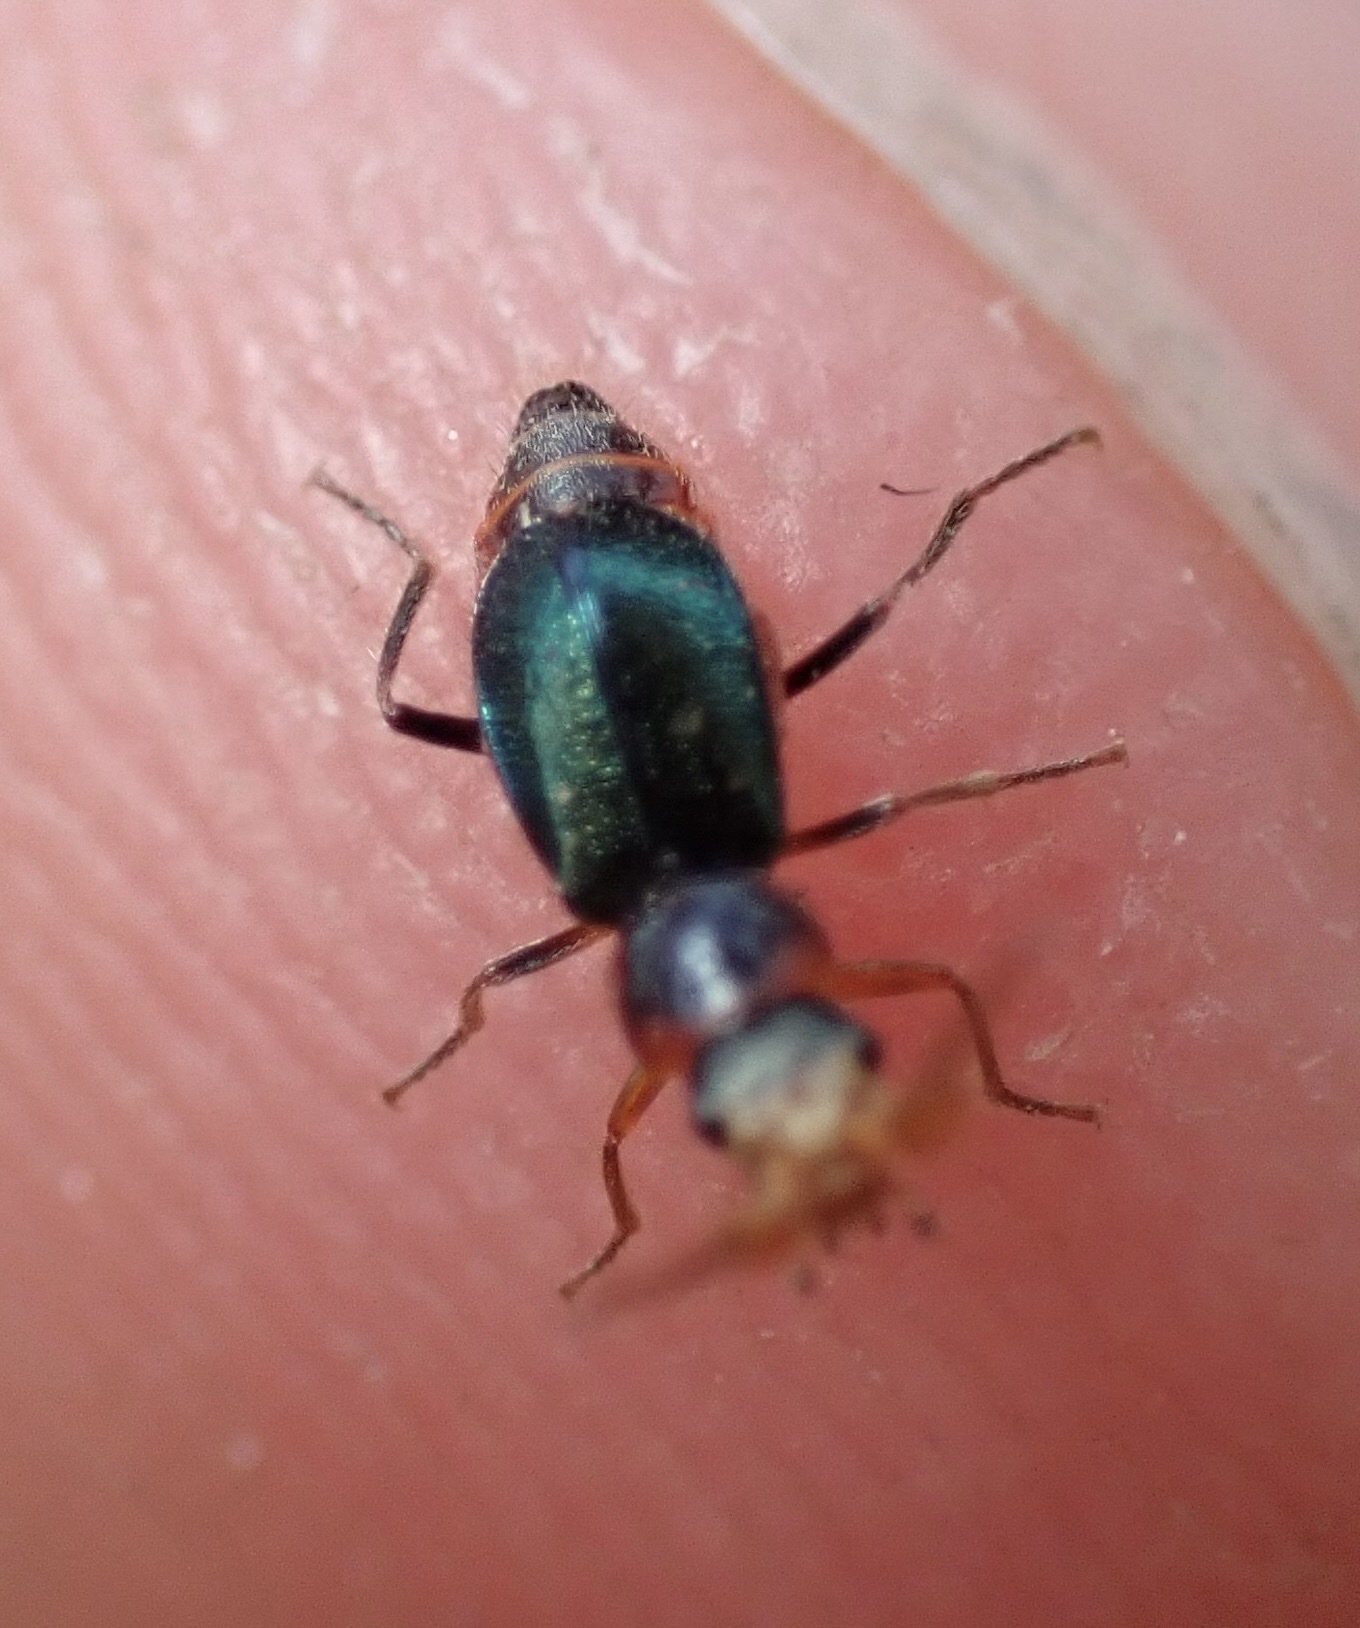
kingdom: Animalia
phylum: Arthropoda
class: Insecta
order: Coleoptera
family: Melyridae
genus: Collops
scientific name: Collops cribrosus
